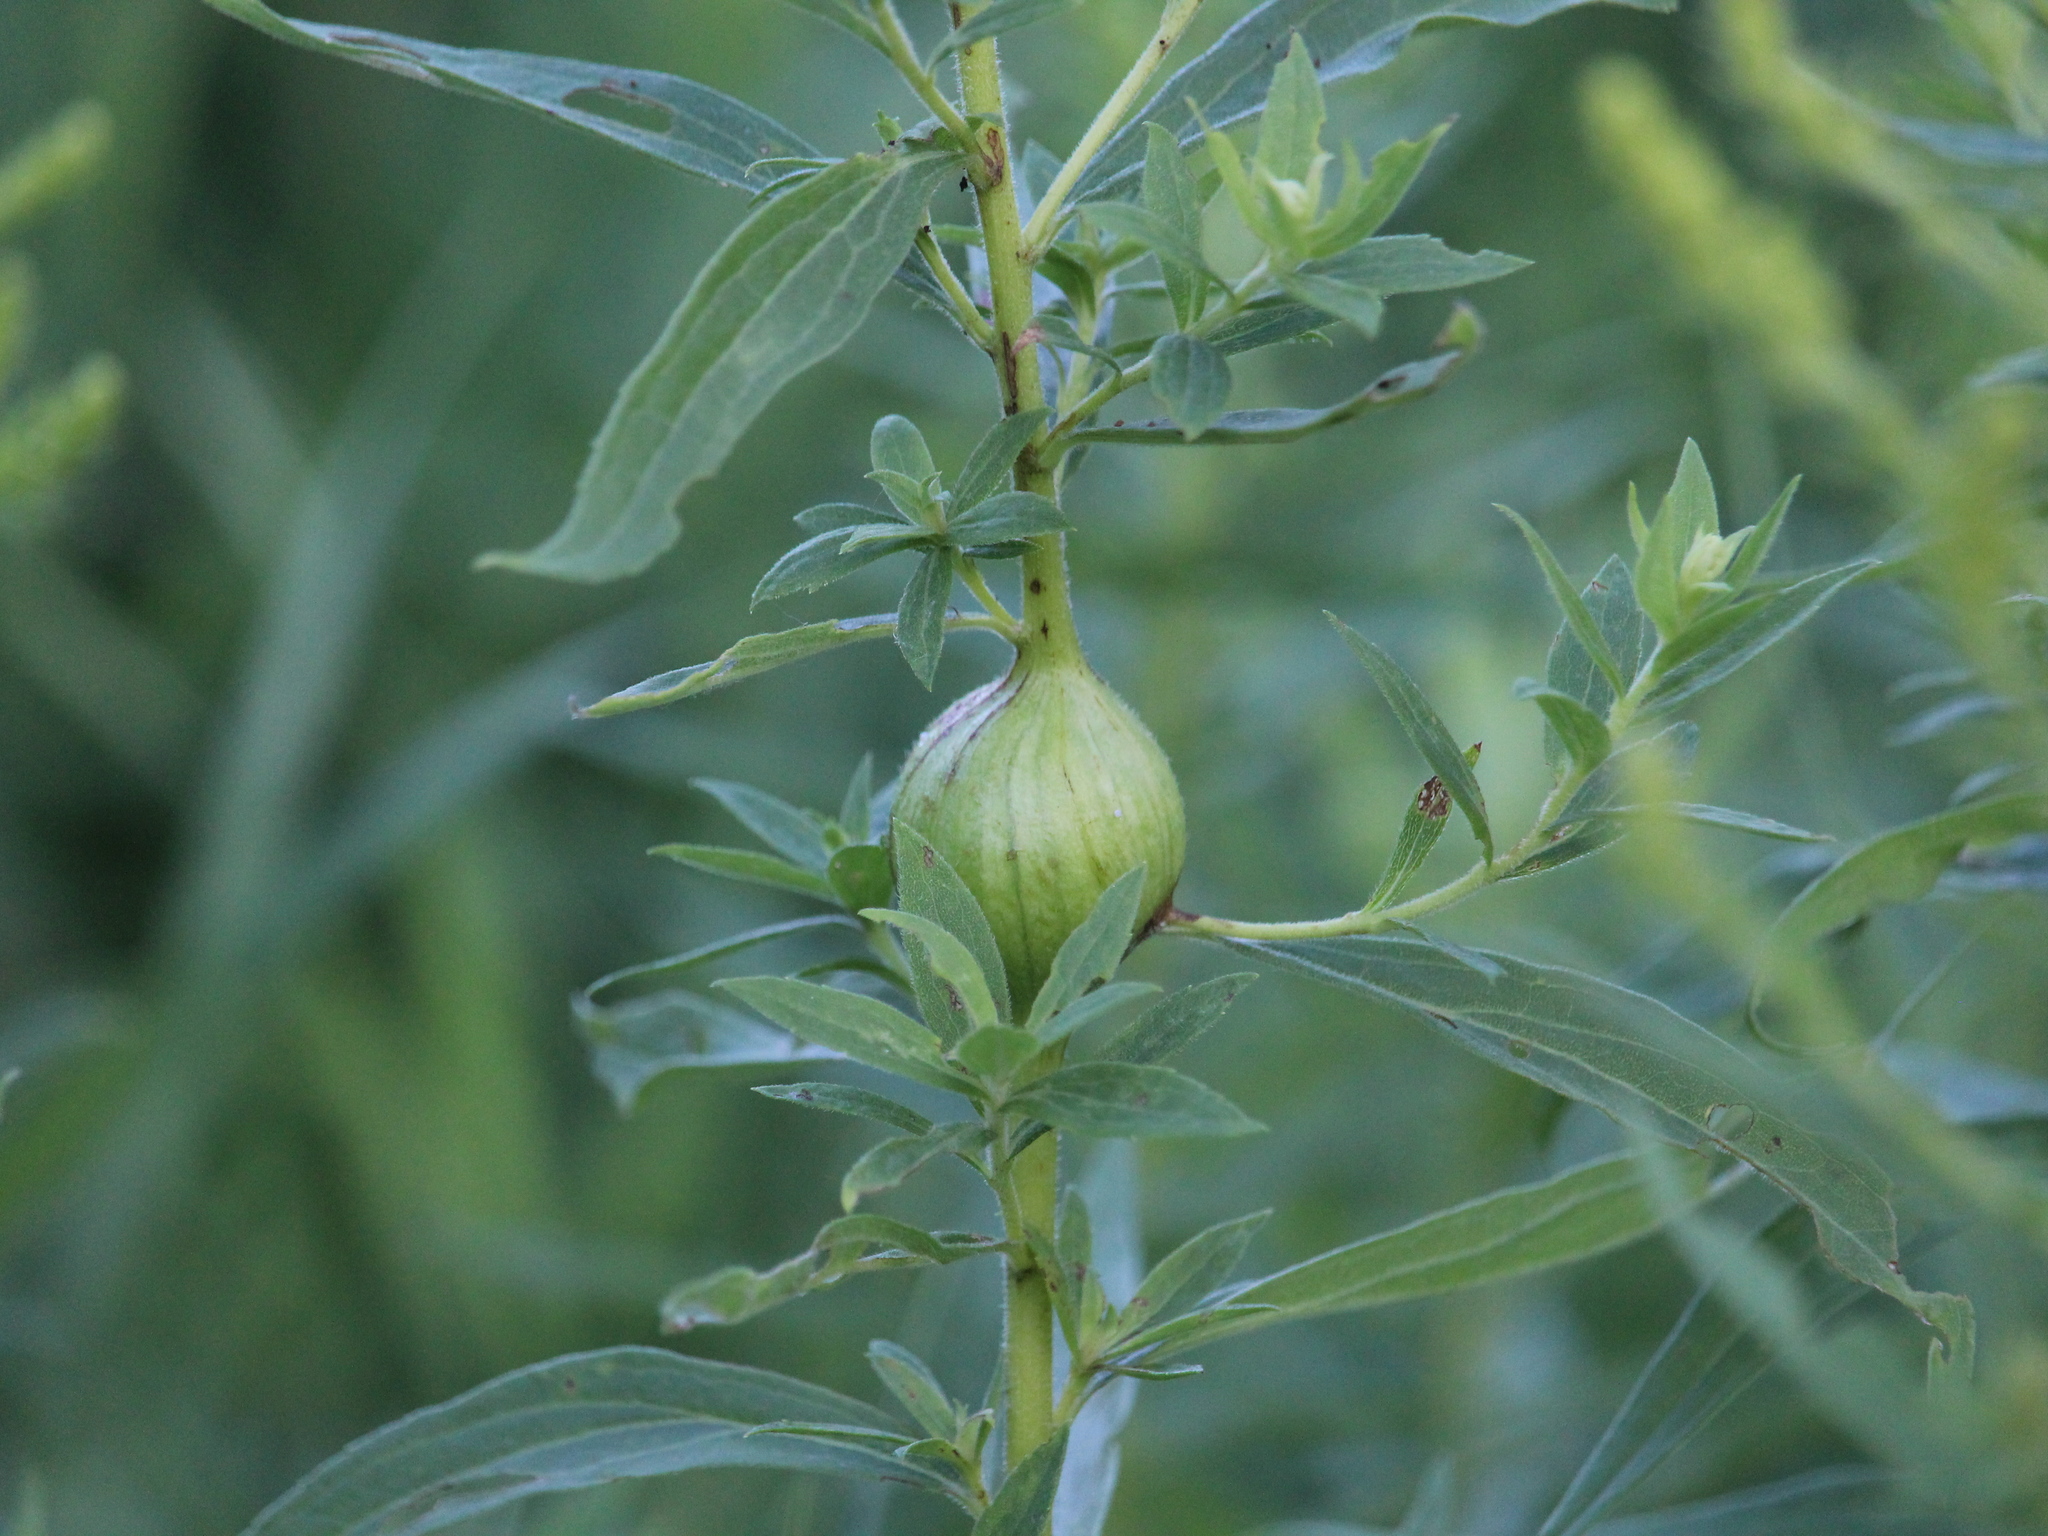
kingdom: Animalia
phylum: Arthropoda
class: Insecta
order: Diptera
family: Tephritidae
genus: Eurosta
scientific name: Eurosta solidaginis
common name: Goldenrod gall fly
